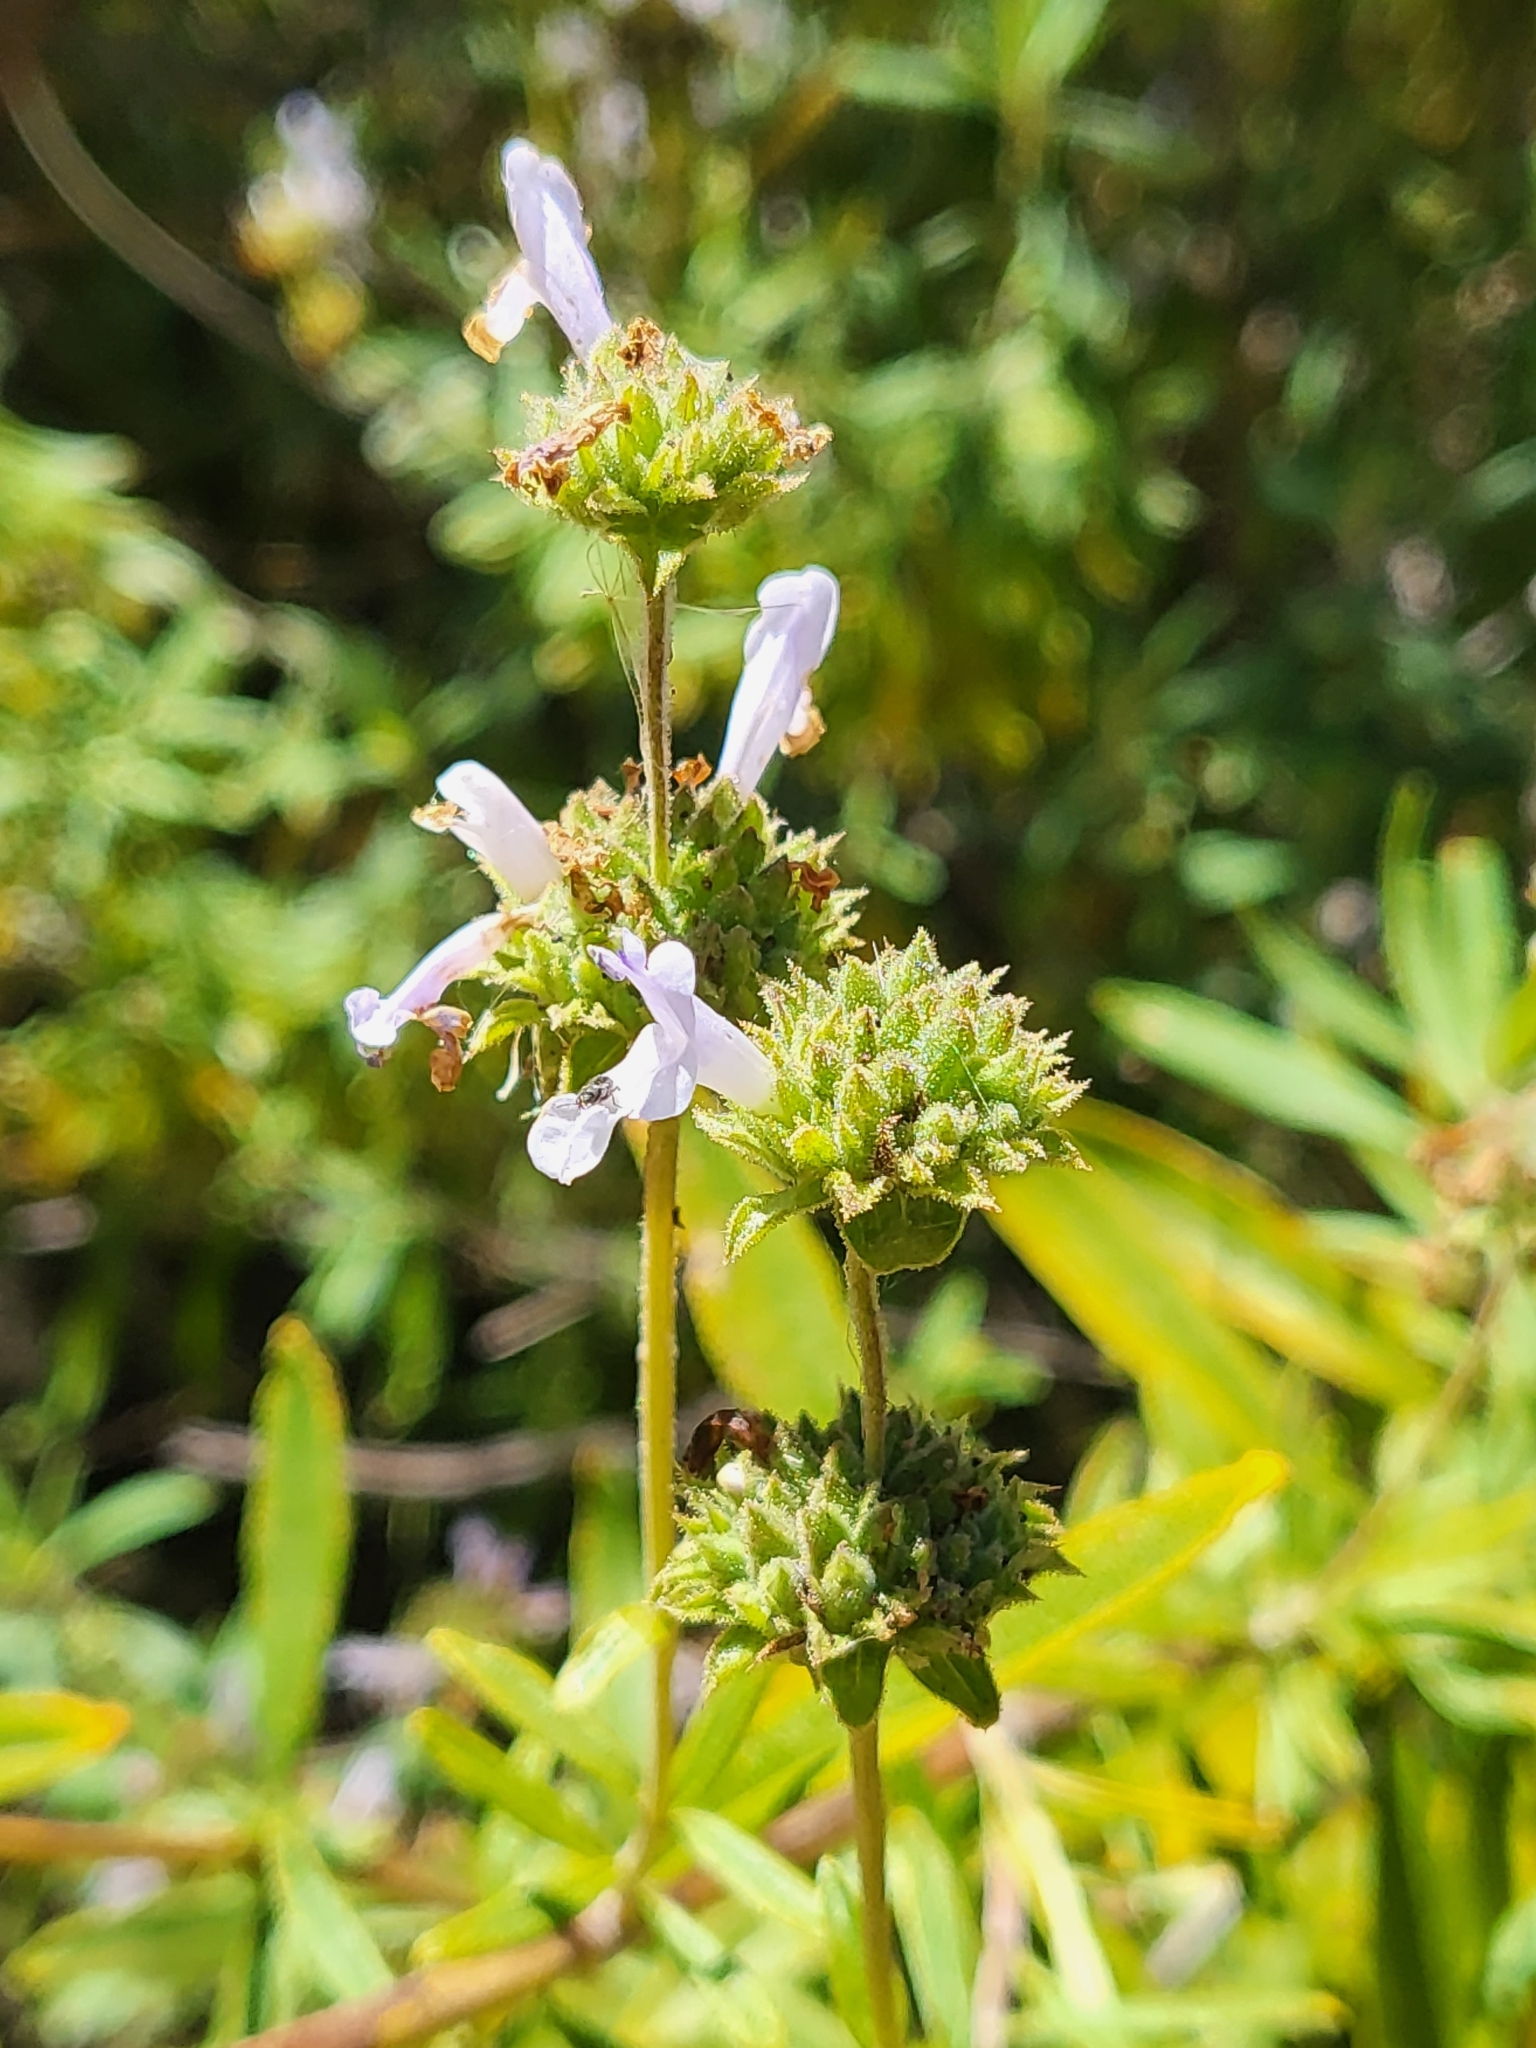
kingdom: Plantae
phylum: Tracheophyta
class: Magnoliopsida
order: Lamiales
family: Lamiaceae
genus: Salvia
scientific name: Salvia mellifera
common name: Black sage
